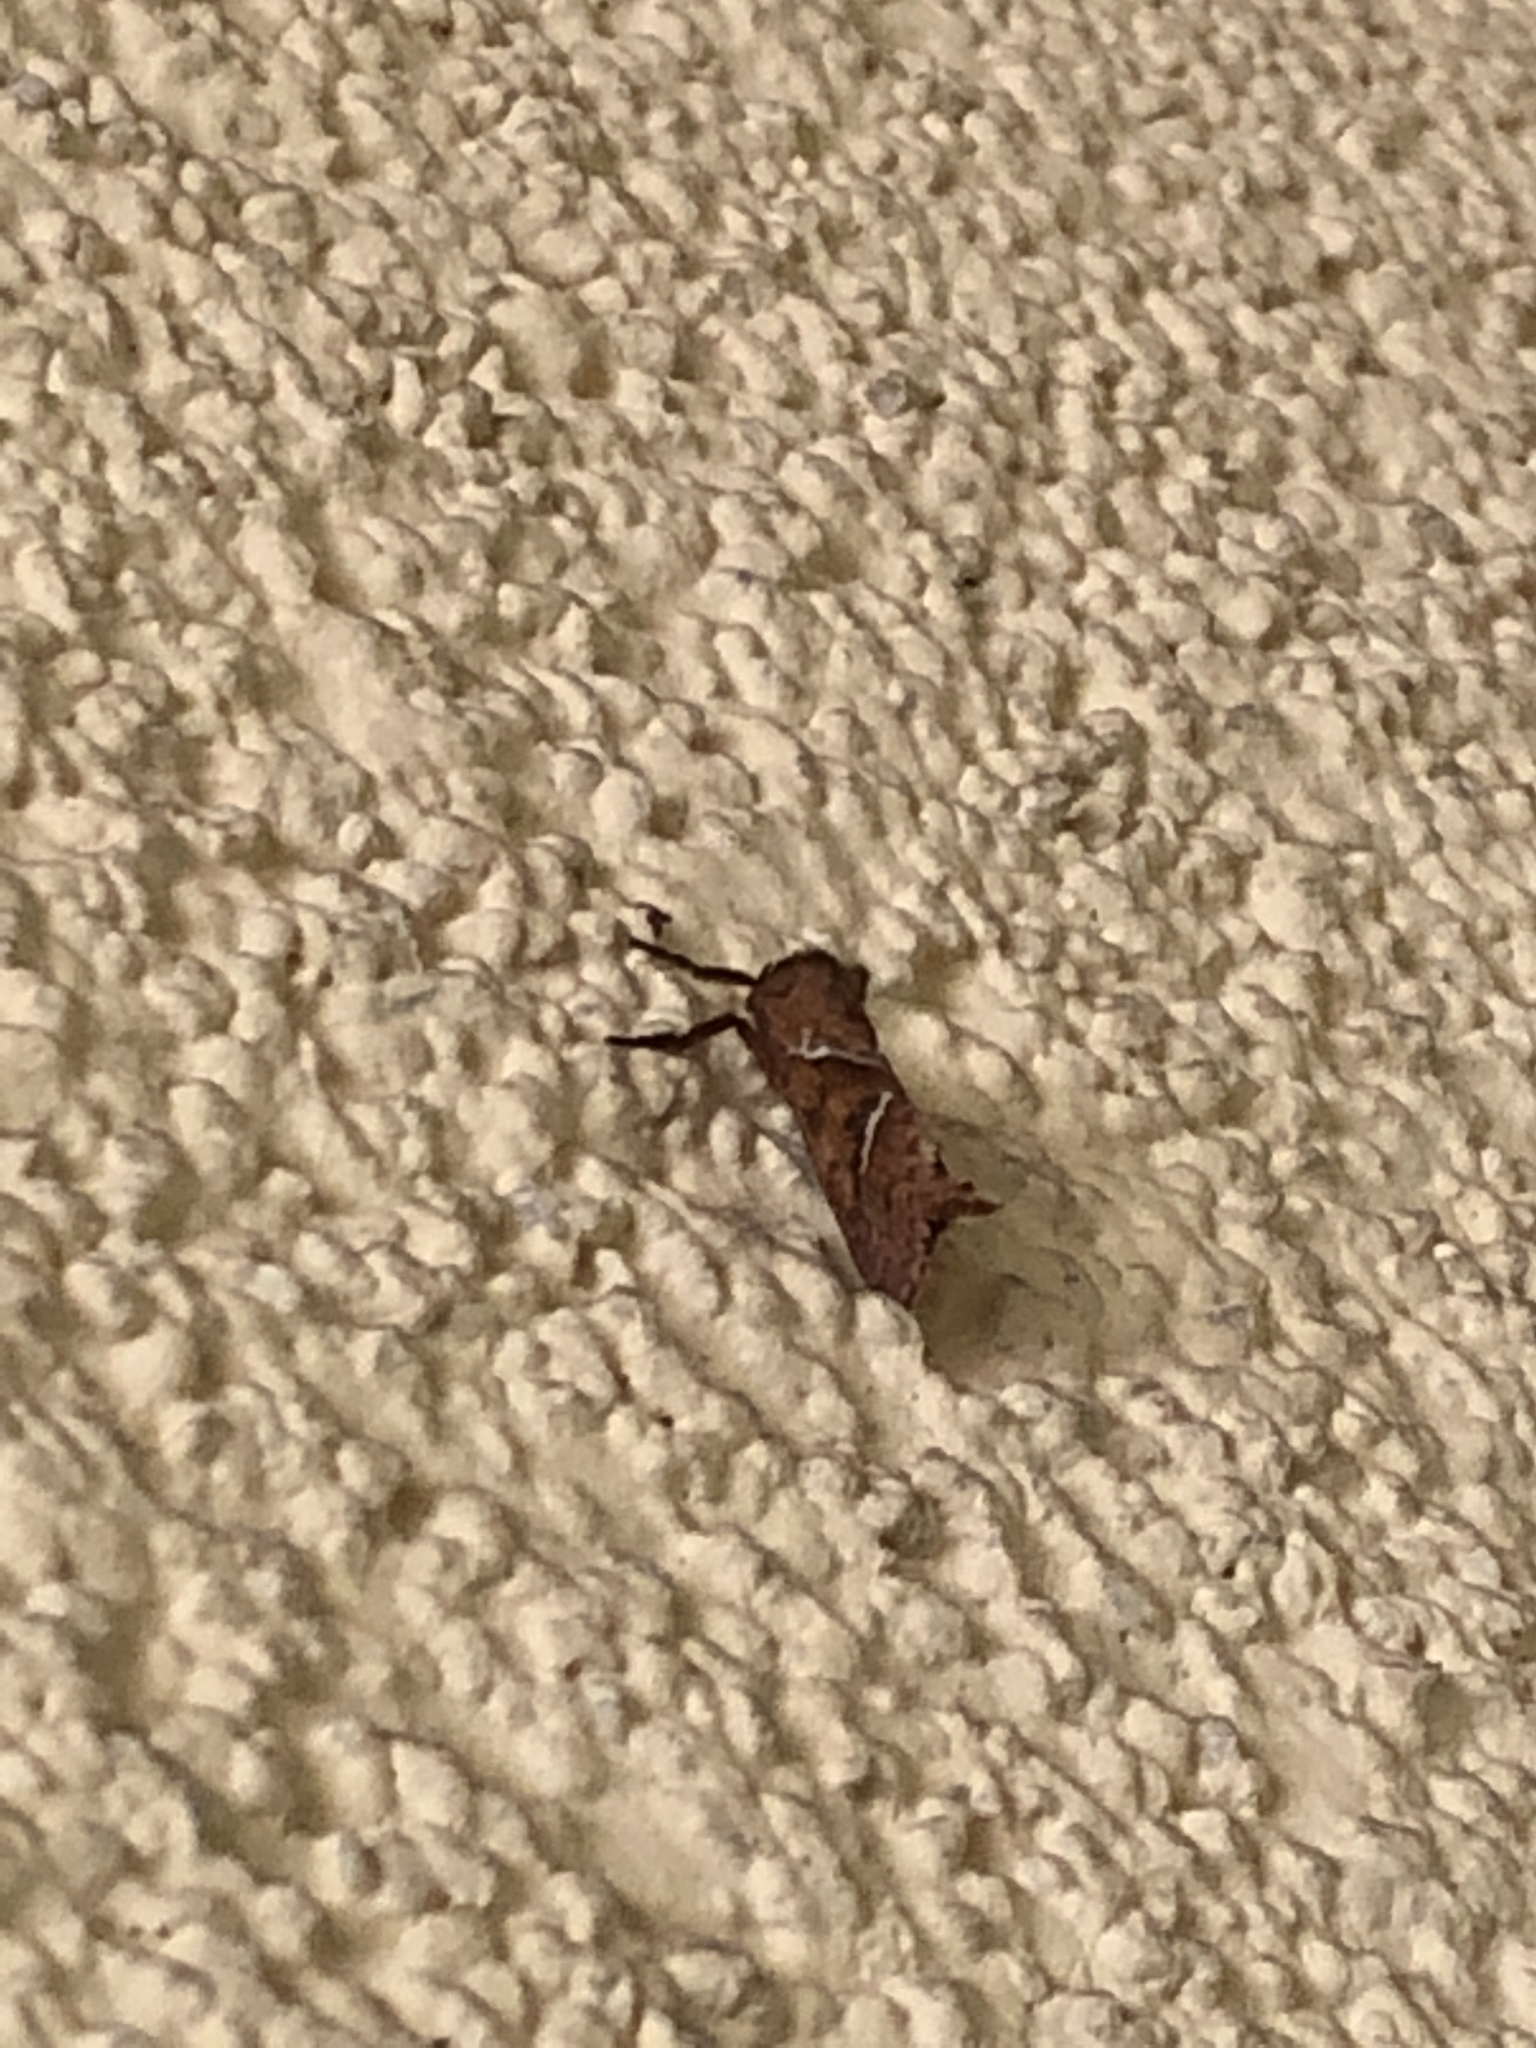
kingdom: Animalia
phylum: Arthropoda
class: Insecta
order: Lepidoptera
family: Hepialidae
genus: Triodia
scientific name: Triodia sylvina
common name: Orange swift
